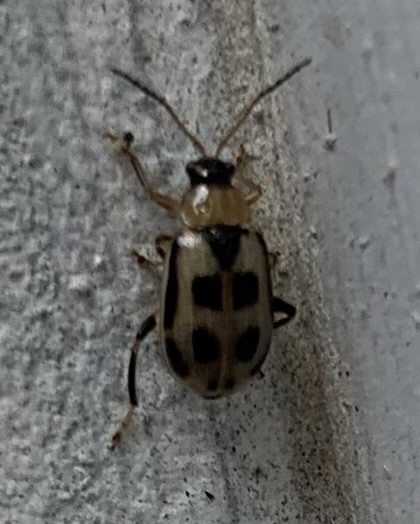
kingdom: Animalia
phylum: Arthropoda
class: Insecta
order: Coleoptera
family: Chrysomelidae
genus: Cerotoma
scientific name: Cerotoma trifurcata
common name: Bean leaf beetle
